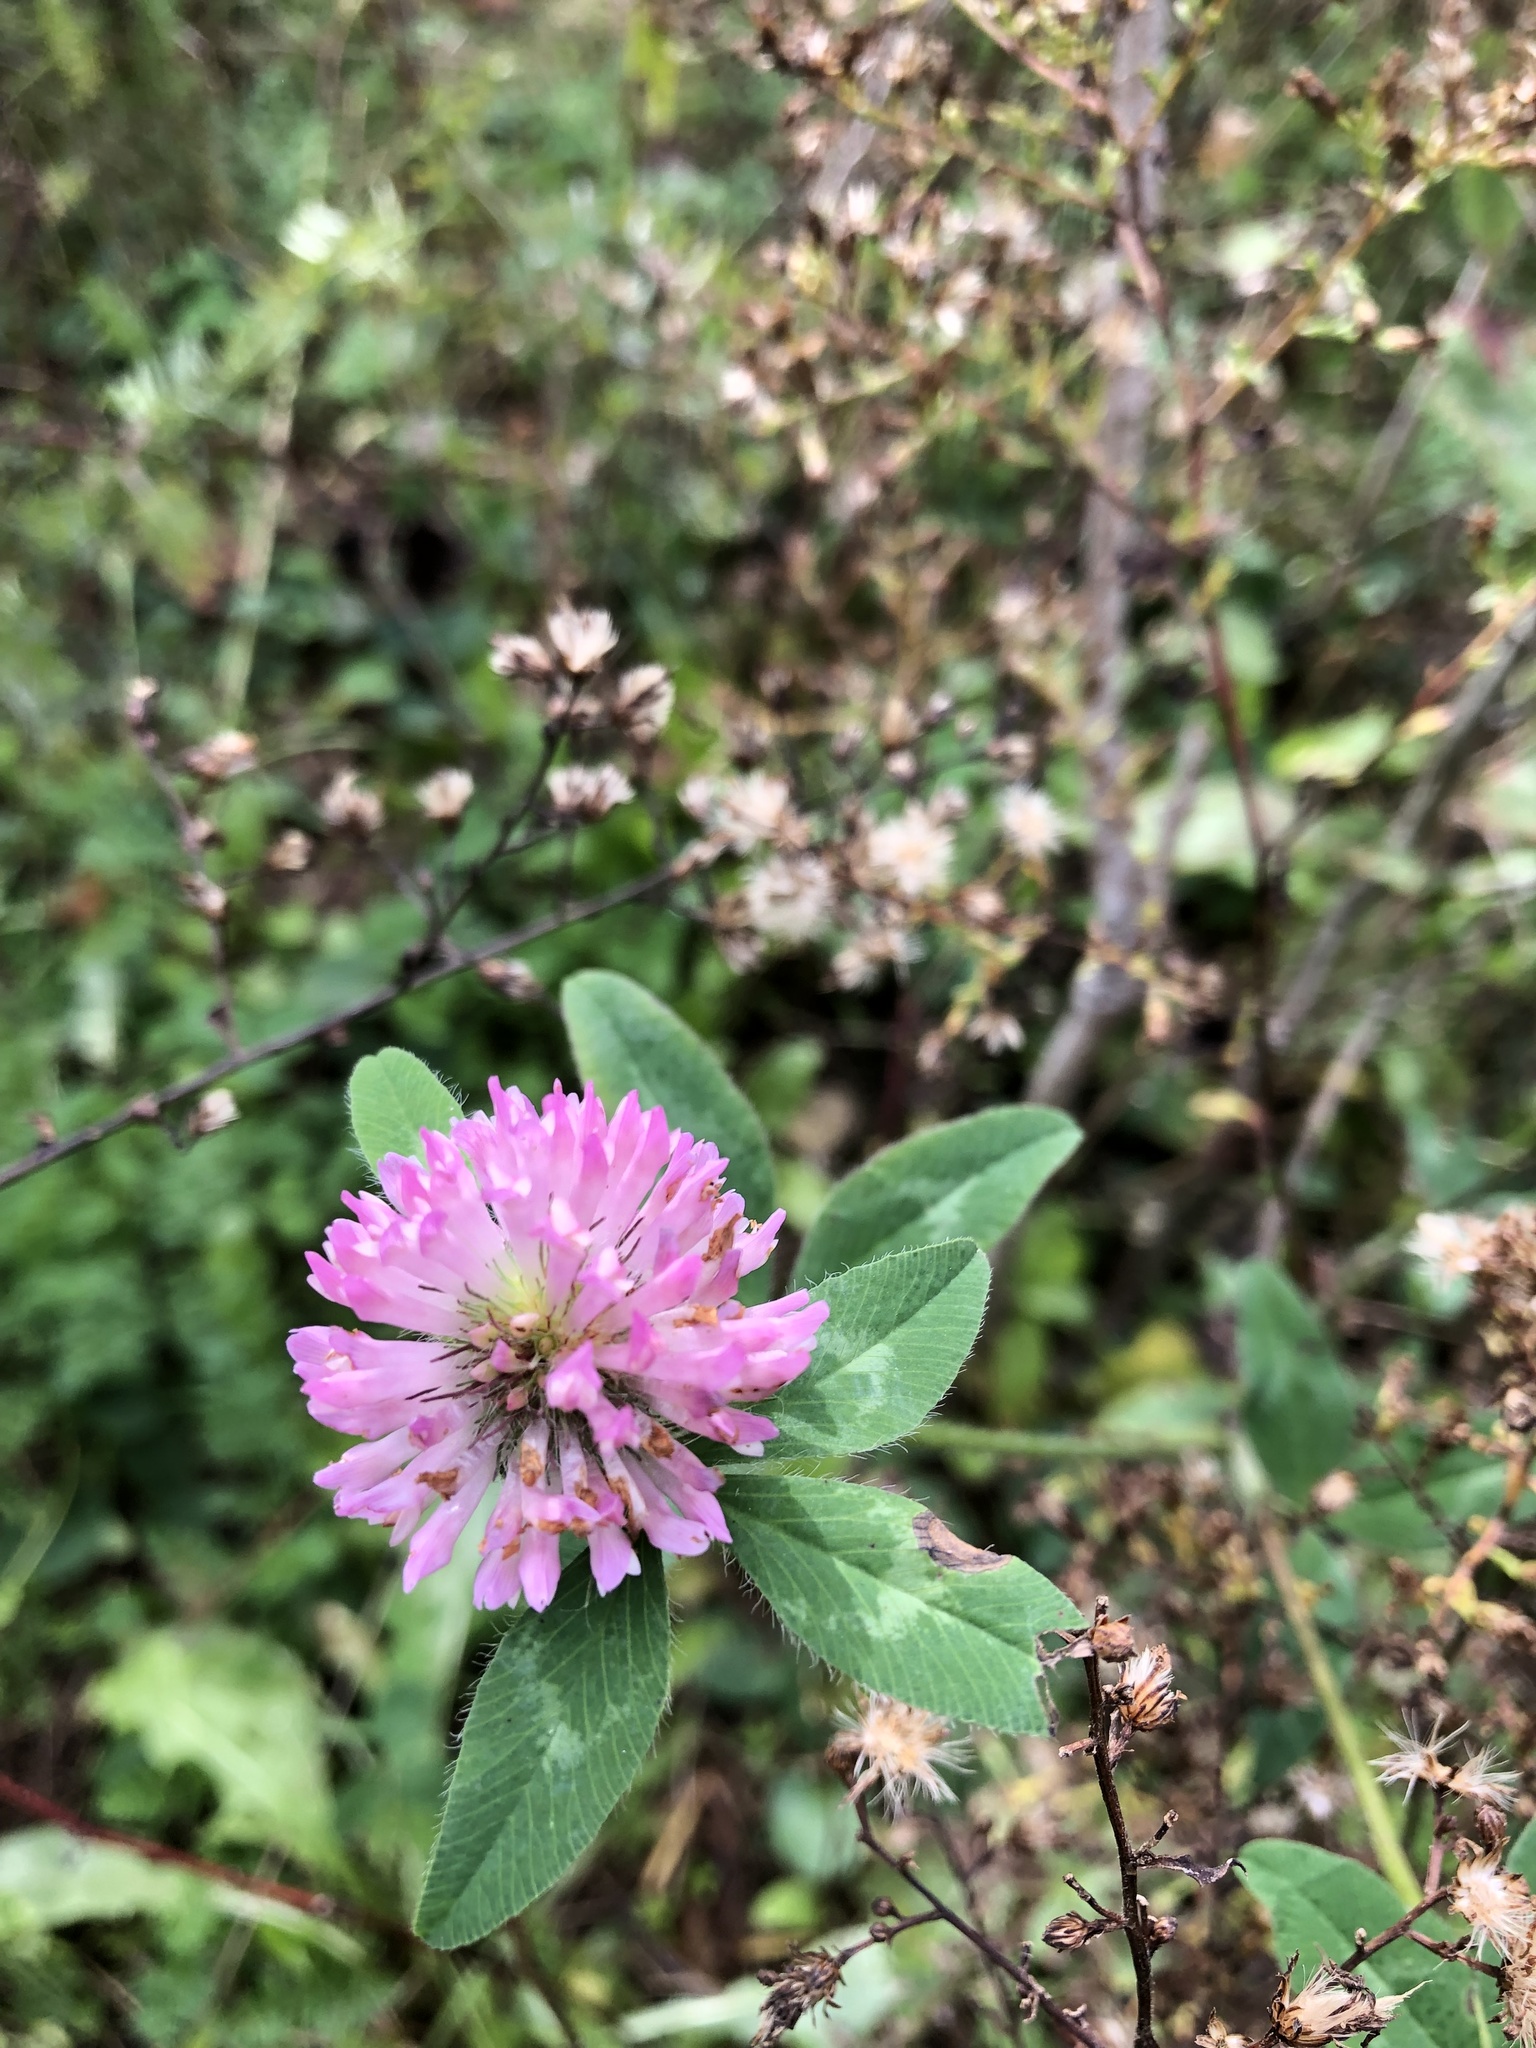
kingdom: Plantae
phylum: Tracheophyta
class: Magnoliopsida
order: Fabales
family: Fabaceae
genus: Trifolium
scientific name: Trifolium pratense
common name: Red clover
